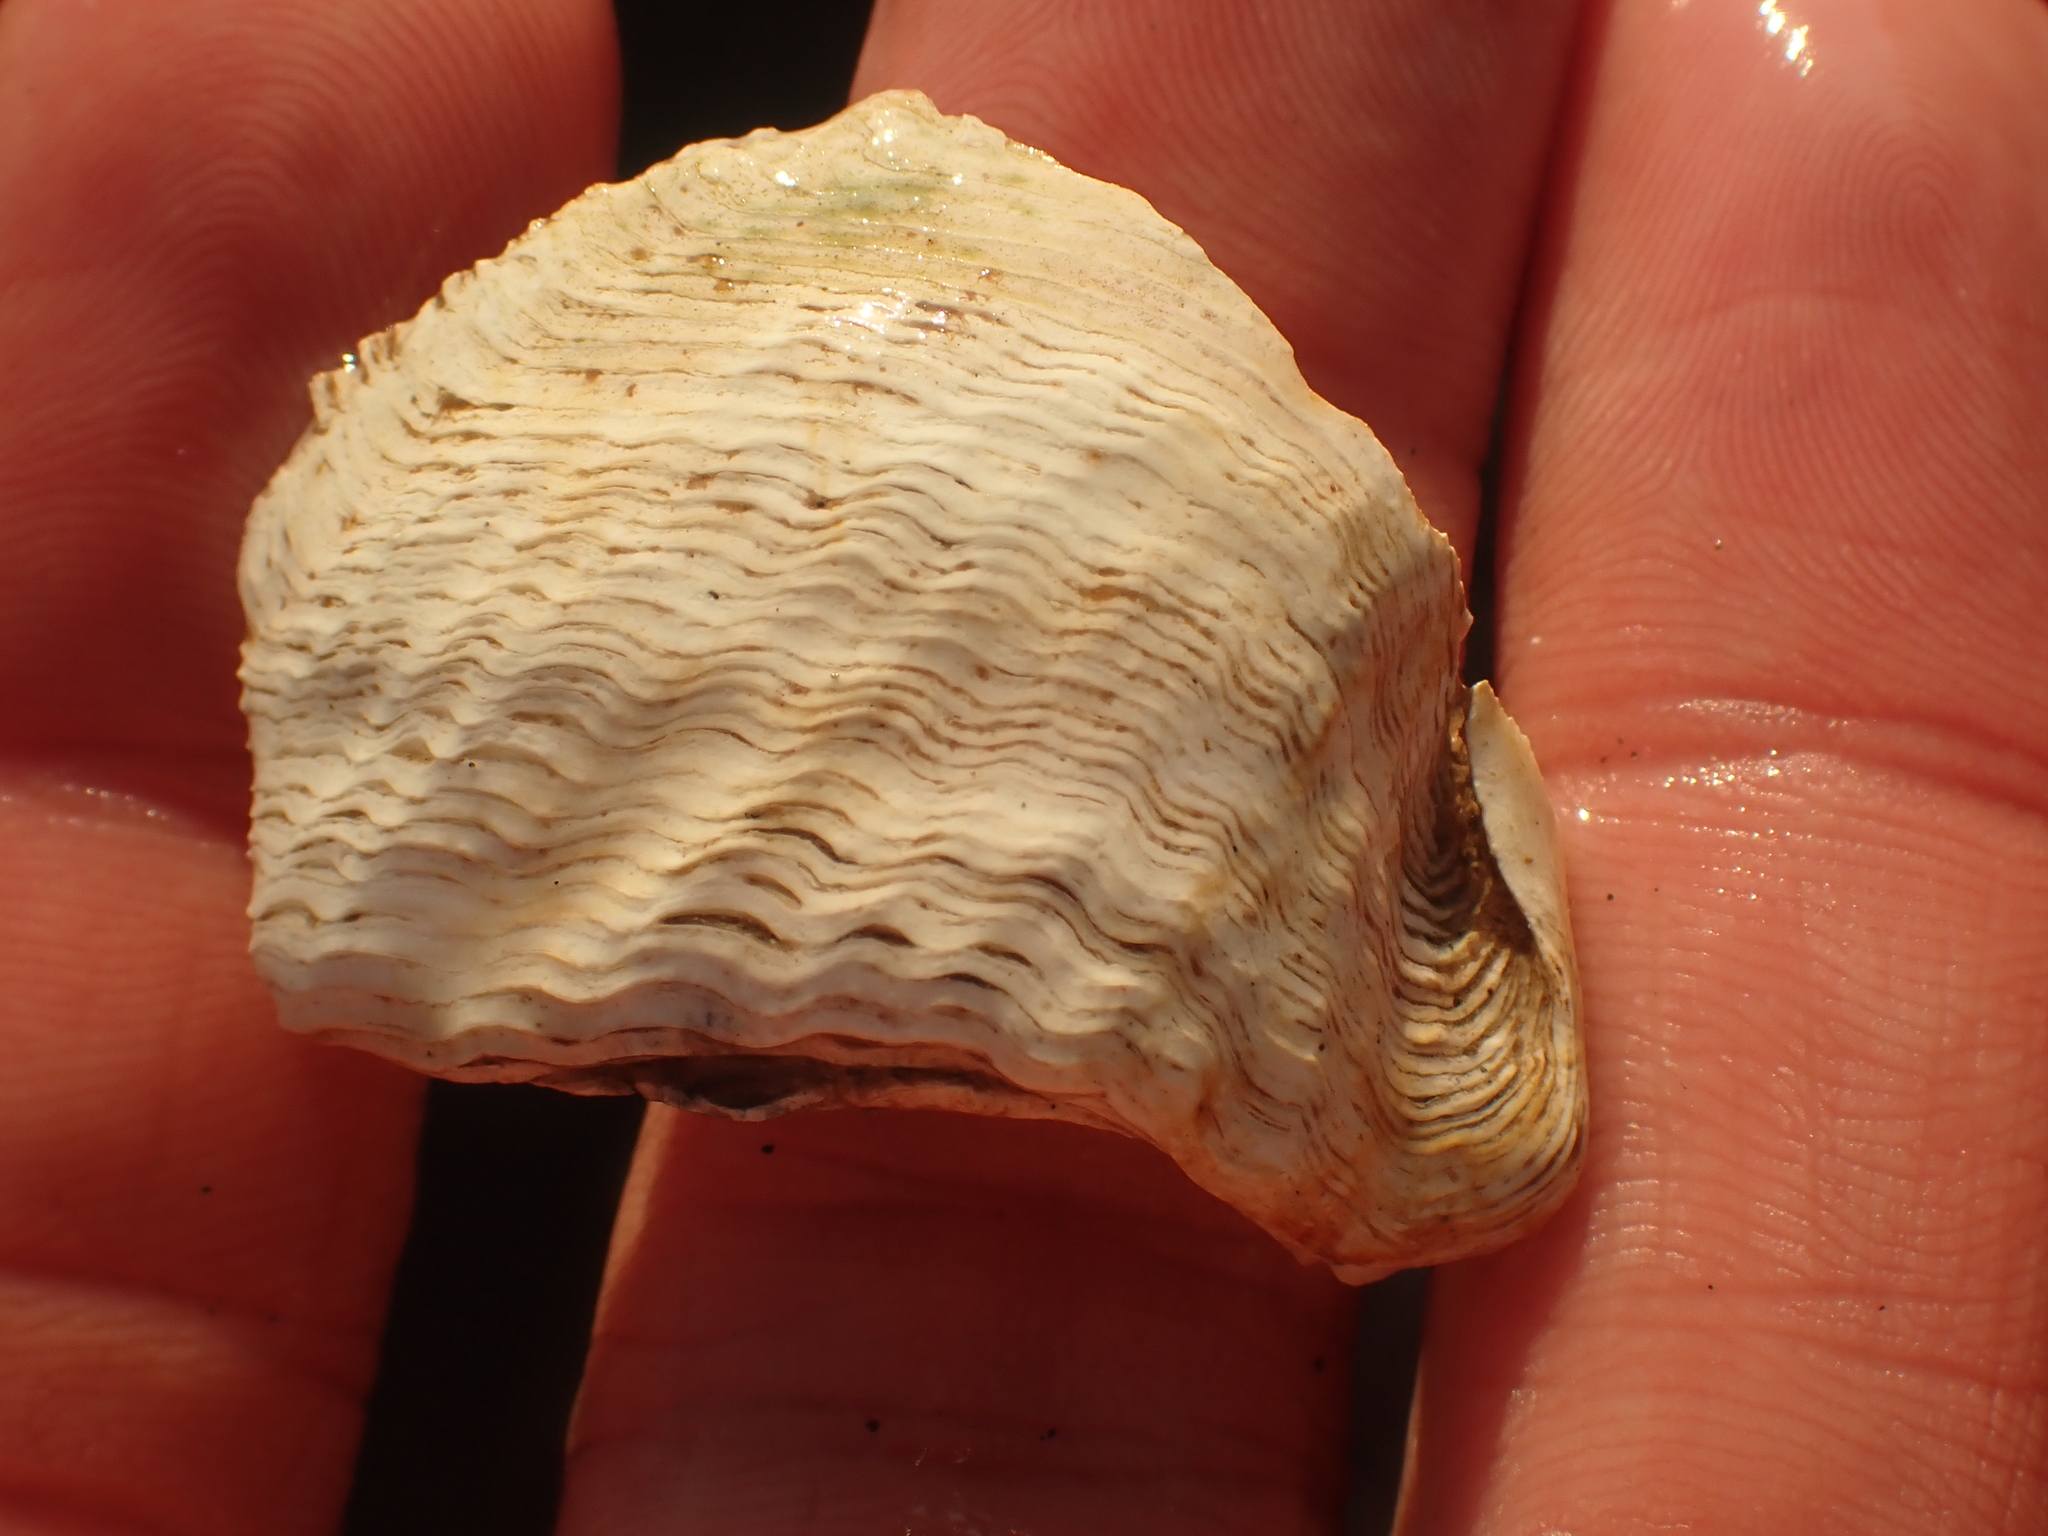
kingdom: Animalia
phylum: Mollusca
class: Bivalvia
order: Myida
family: Pholadidae
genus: Zirfaea
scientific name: Zirfaea crispata
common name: Oval piddock
